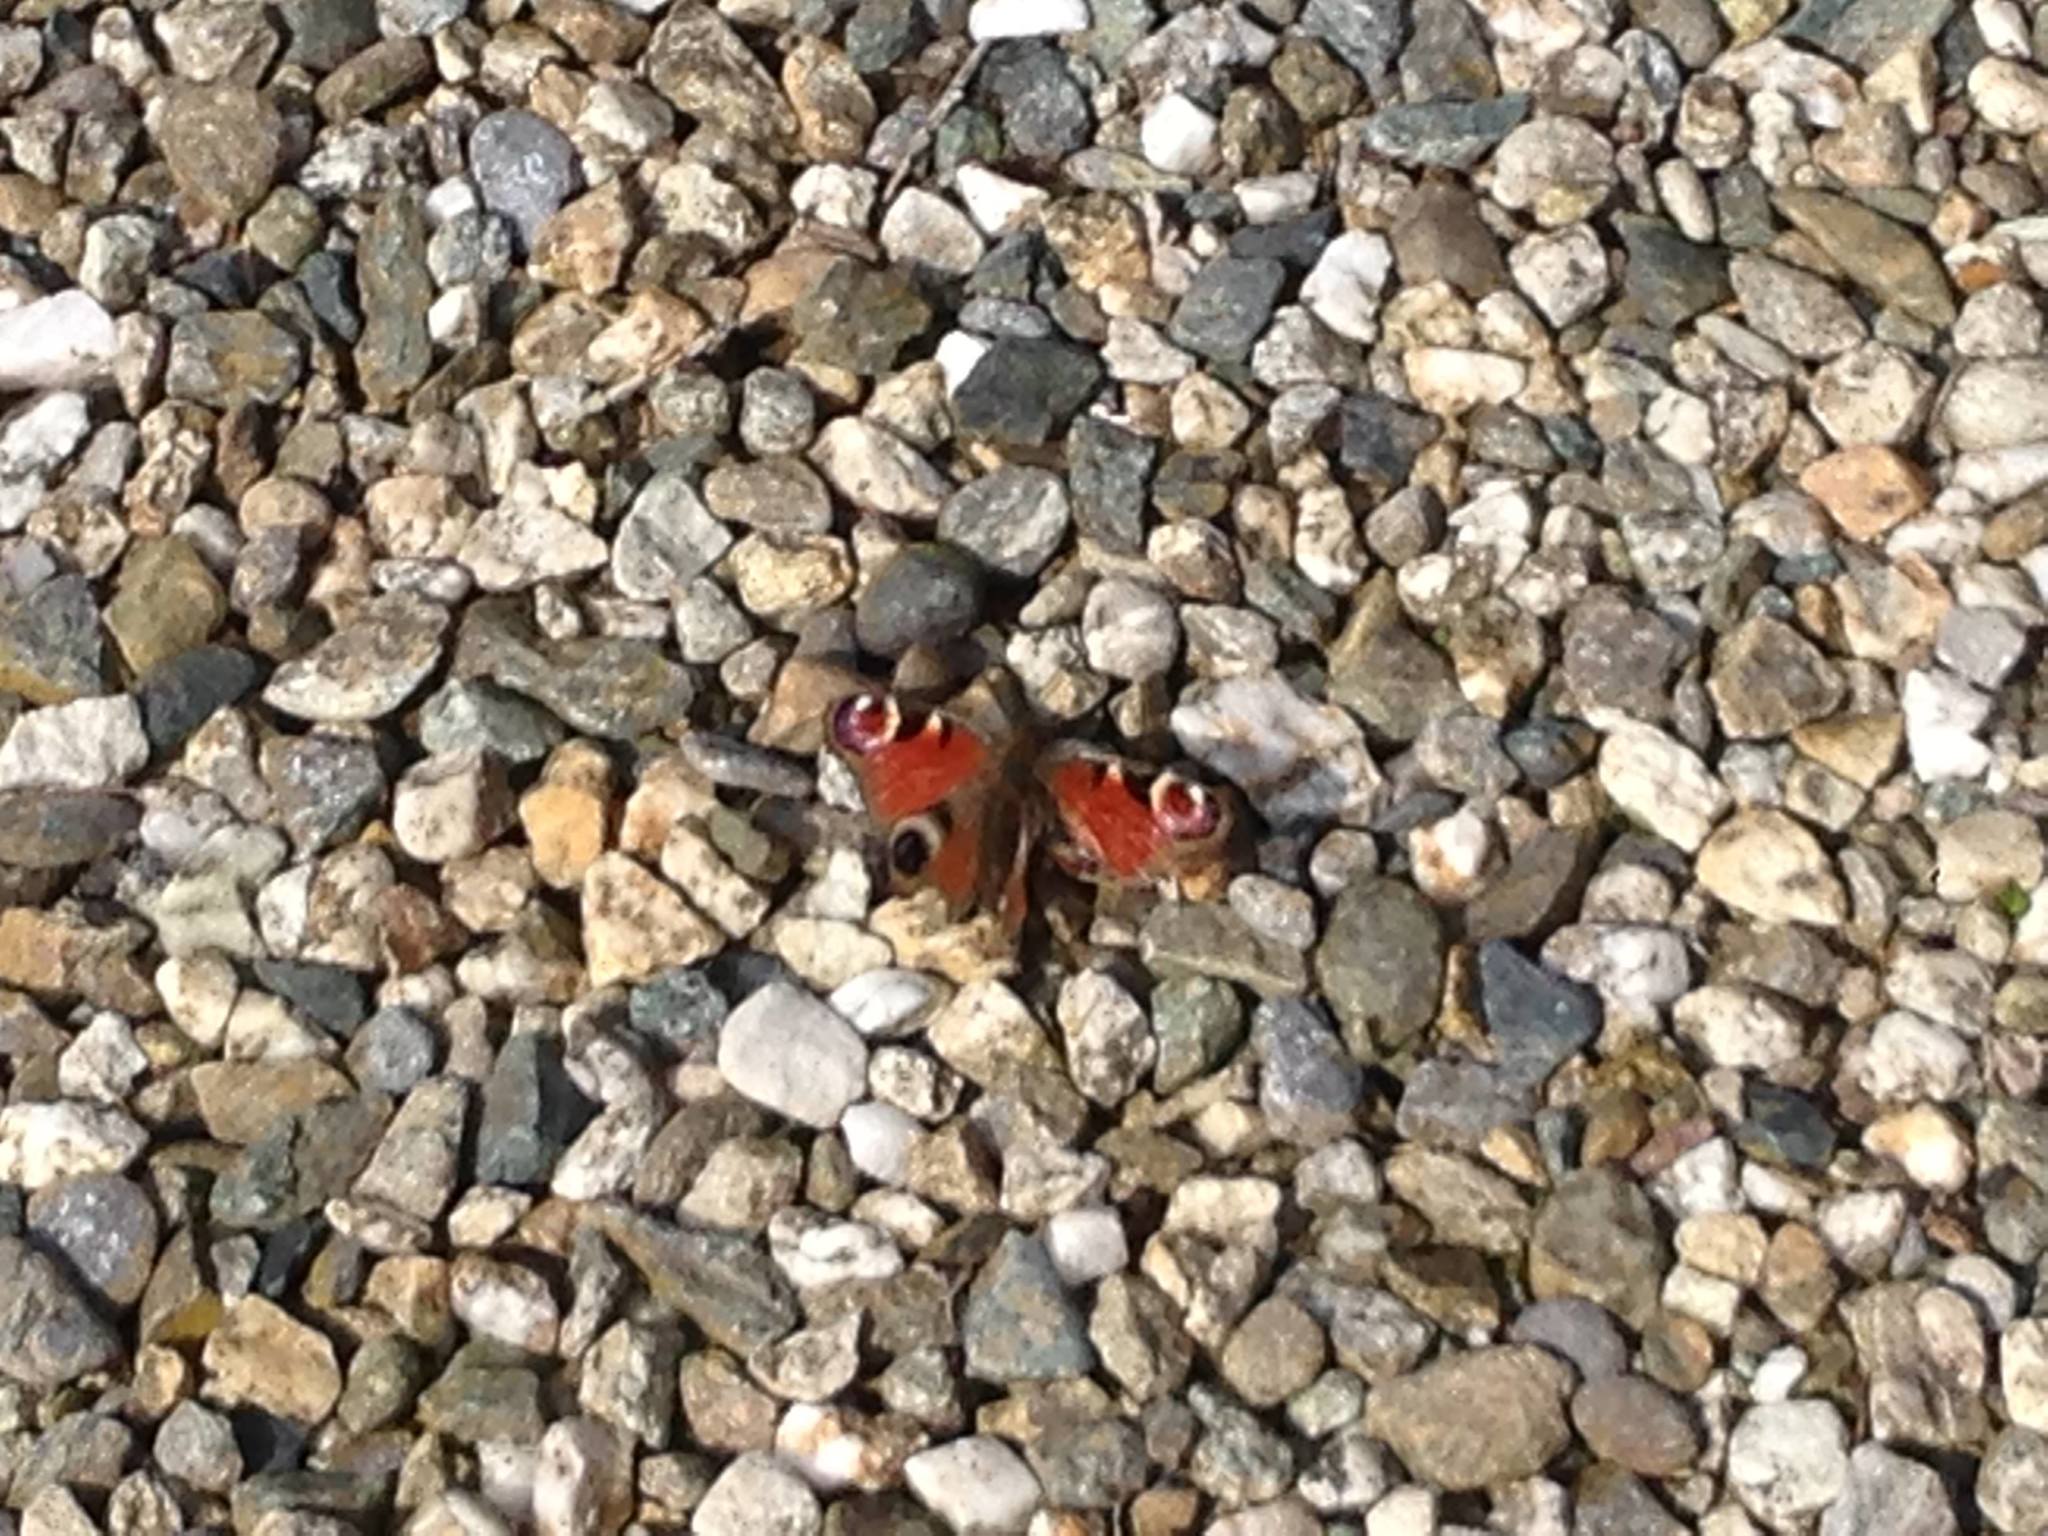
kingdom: Animalia
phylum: Arthropoda
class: Insecta
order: Lepidoptera
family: Nymphalidae
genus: Aglais
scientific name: Aglais io
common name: Peacock
